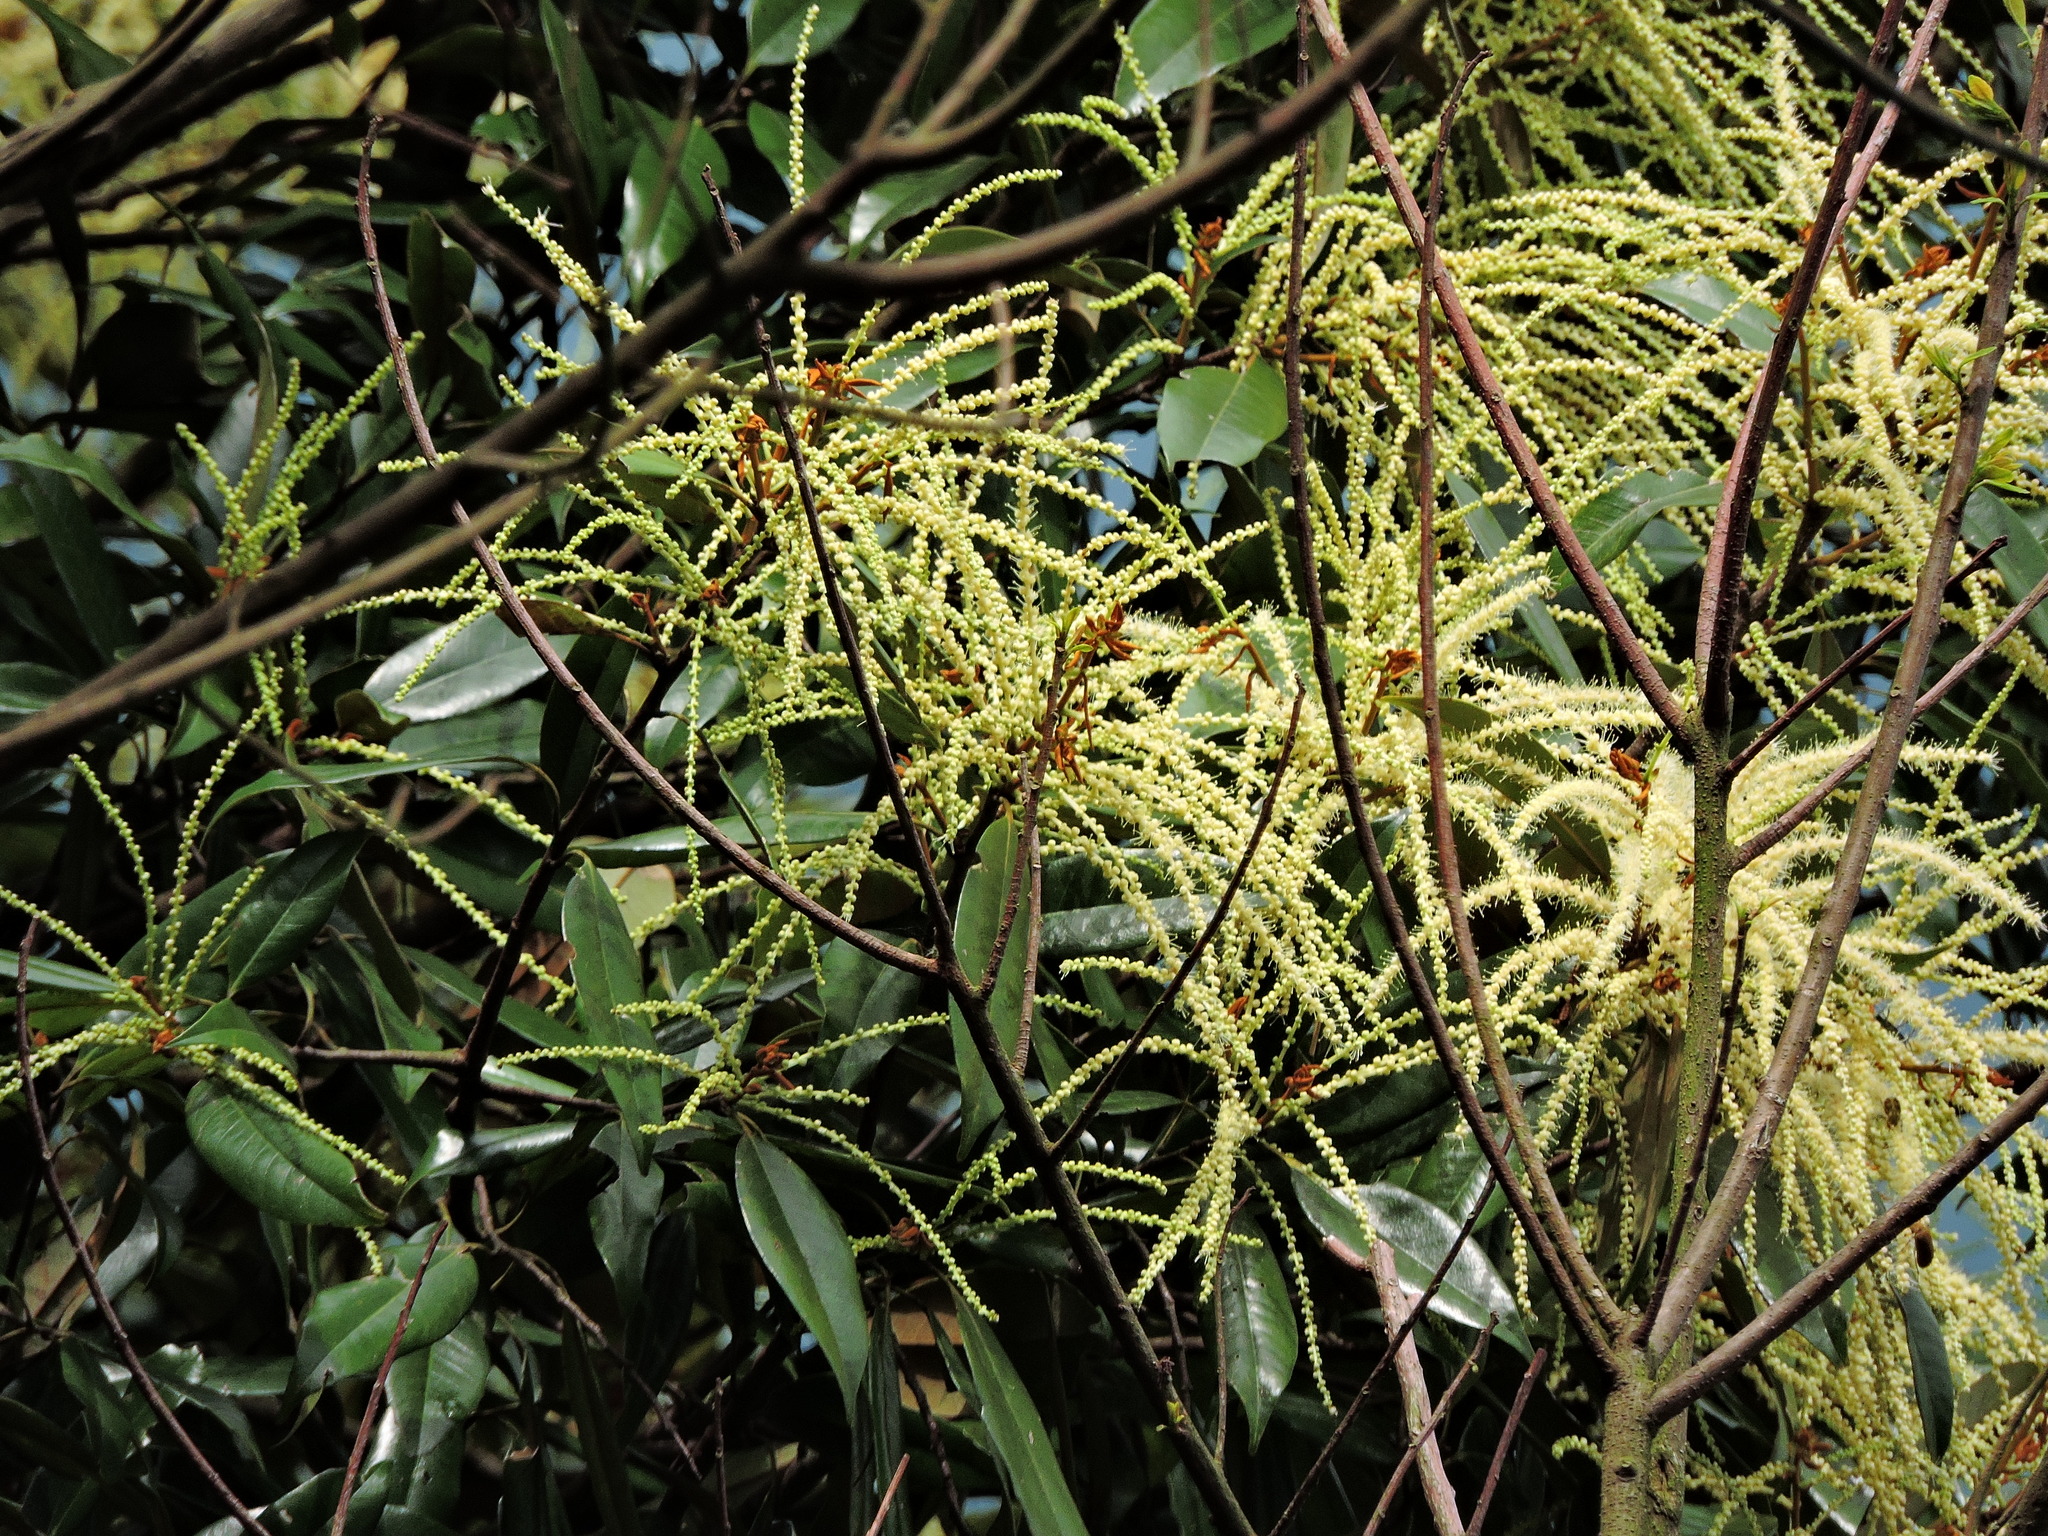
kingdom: Plantae
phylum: Tracheophyta
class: Magnoliopsida
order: Fagales
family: Fagaceae
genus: Castanopsis
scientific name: Castanopsis fargesii
